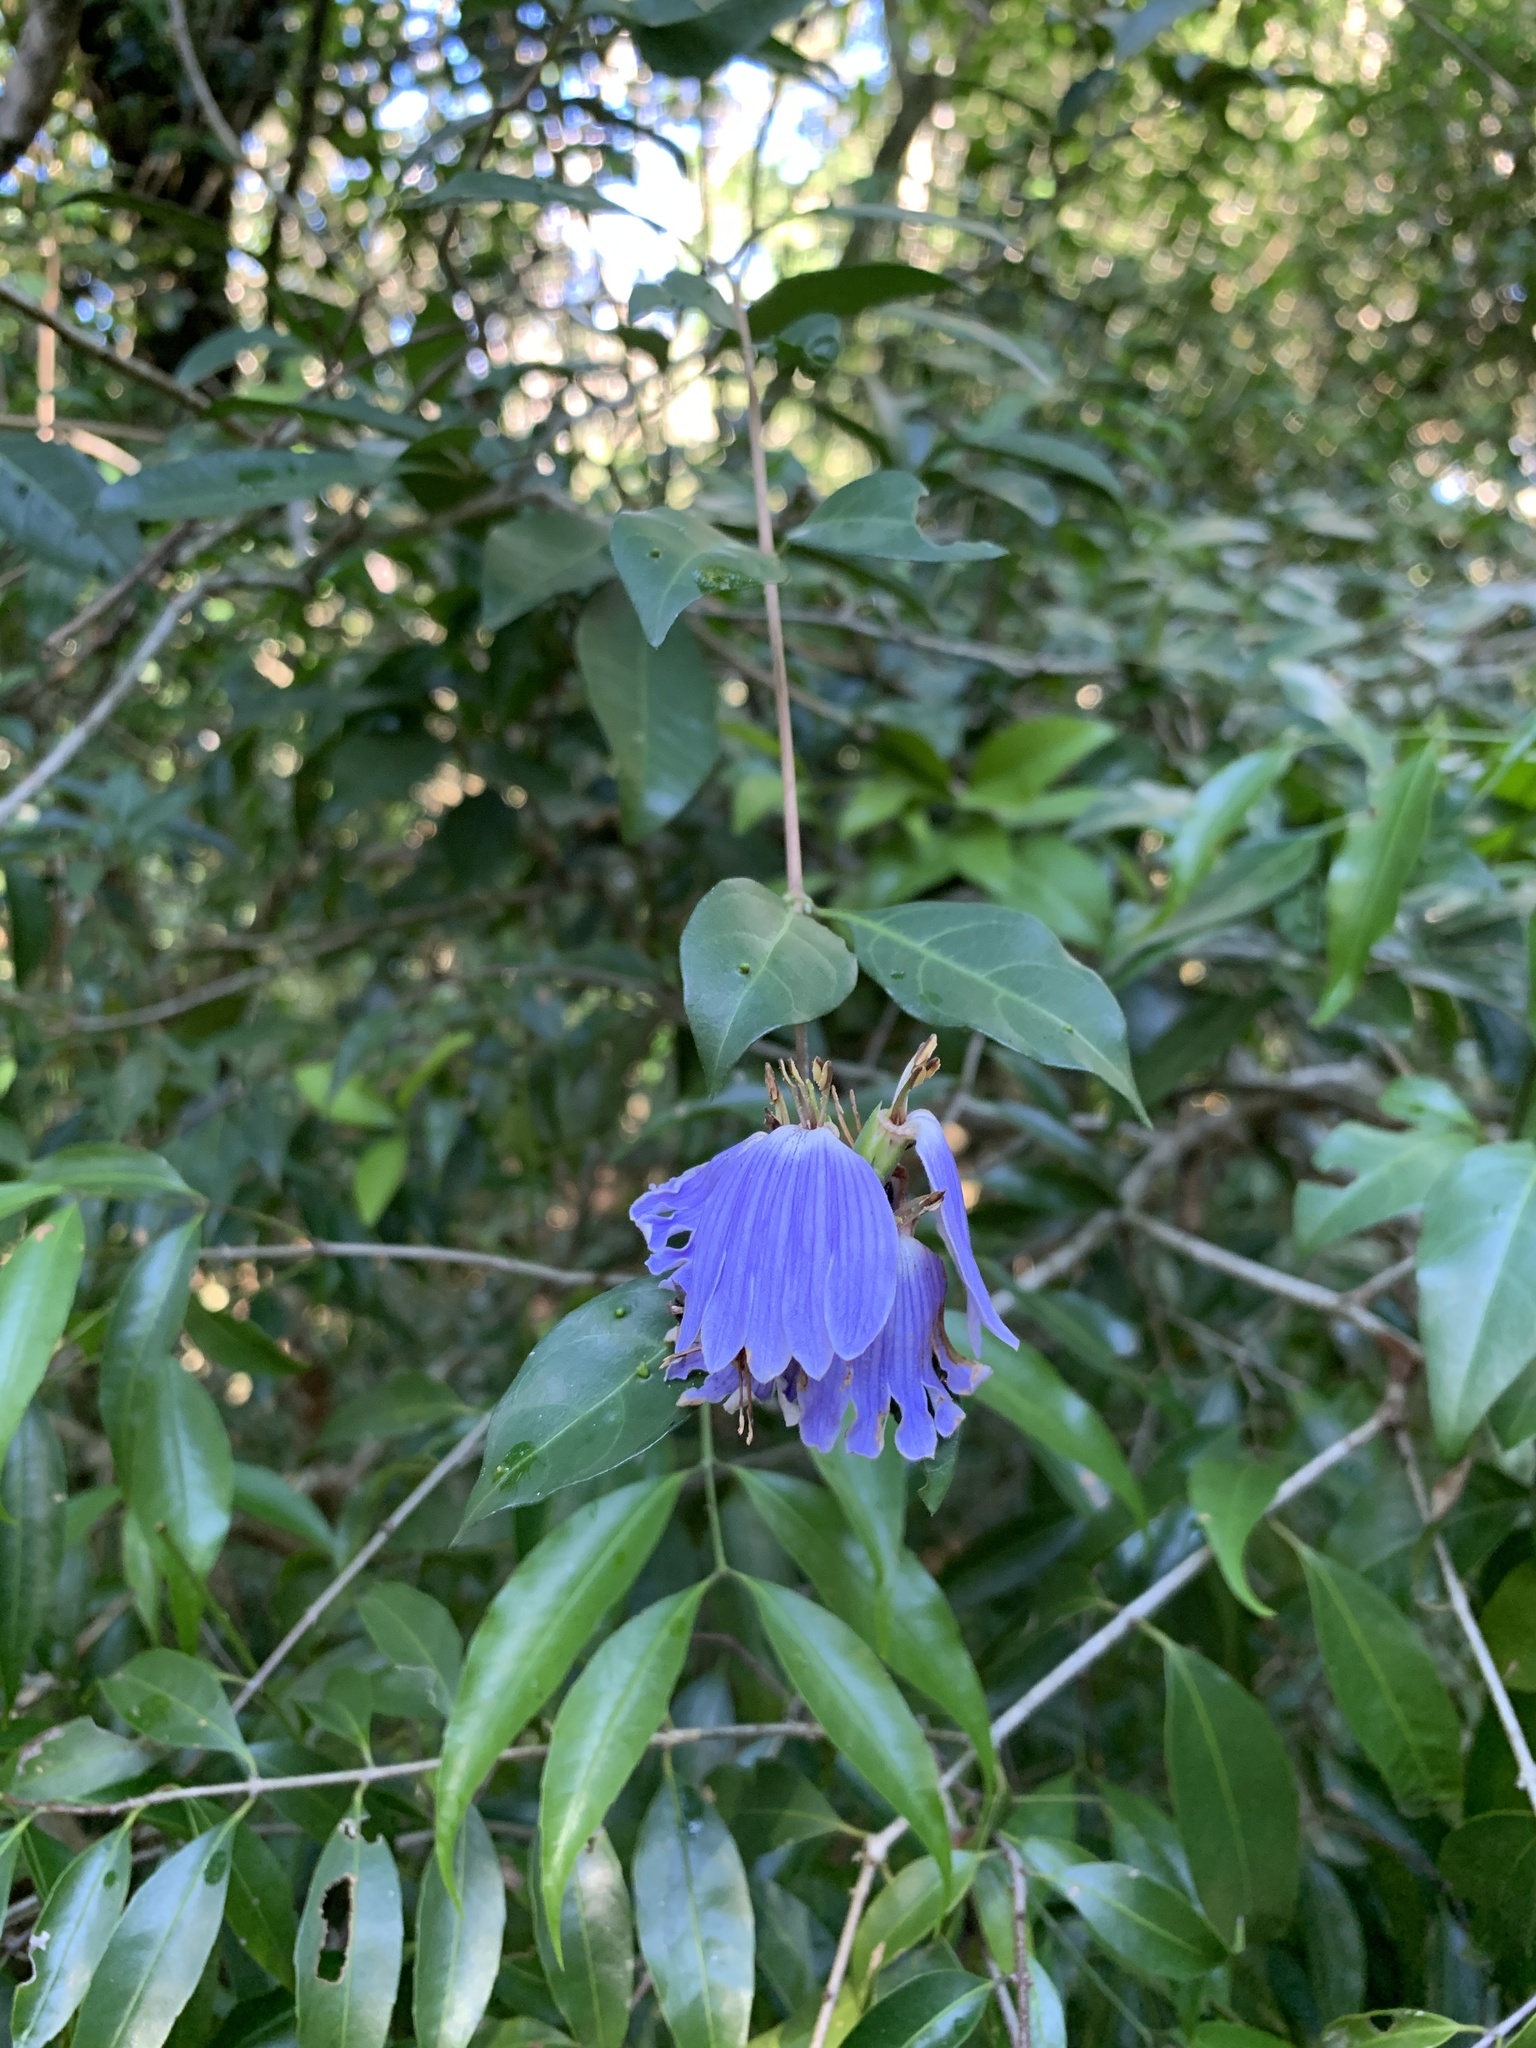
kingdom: Plantae
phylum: Tracheophyta
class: Magnoliopsida
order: Lamiales
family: Acanthaceae
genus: Sclerochiton
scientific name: Sclerochiton apiculatus
